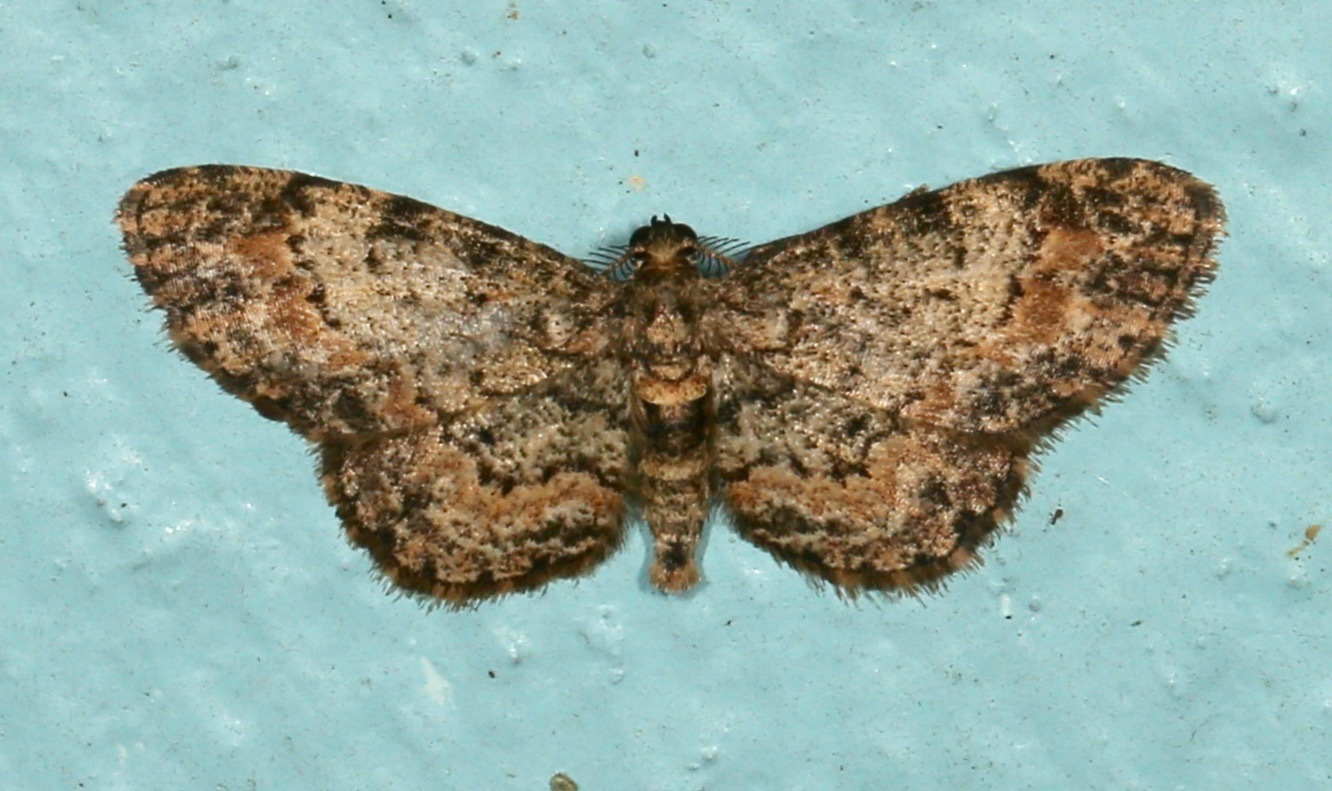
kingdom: Animalia
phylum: Arthropoda
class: Insecta
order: Lepidoptera
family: Geometridae
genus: Glenoides
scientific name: Glenoides texanaria
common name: Texas gray
